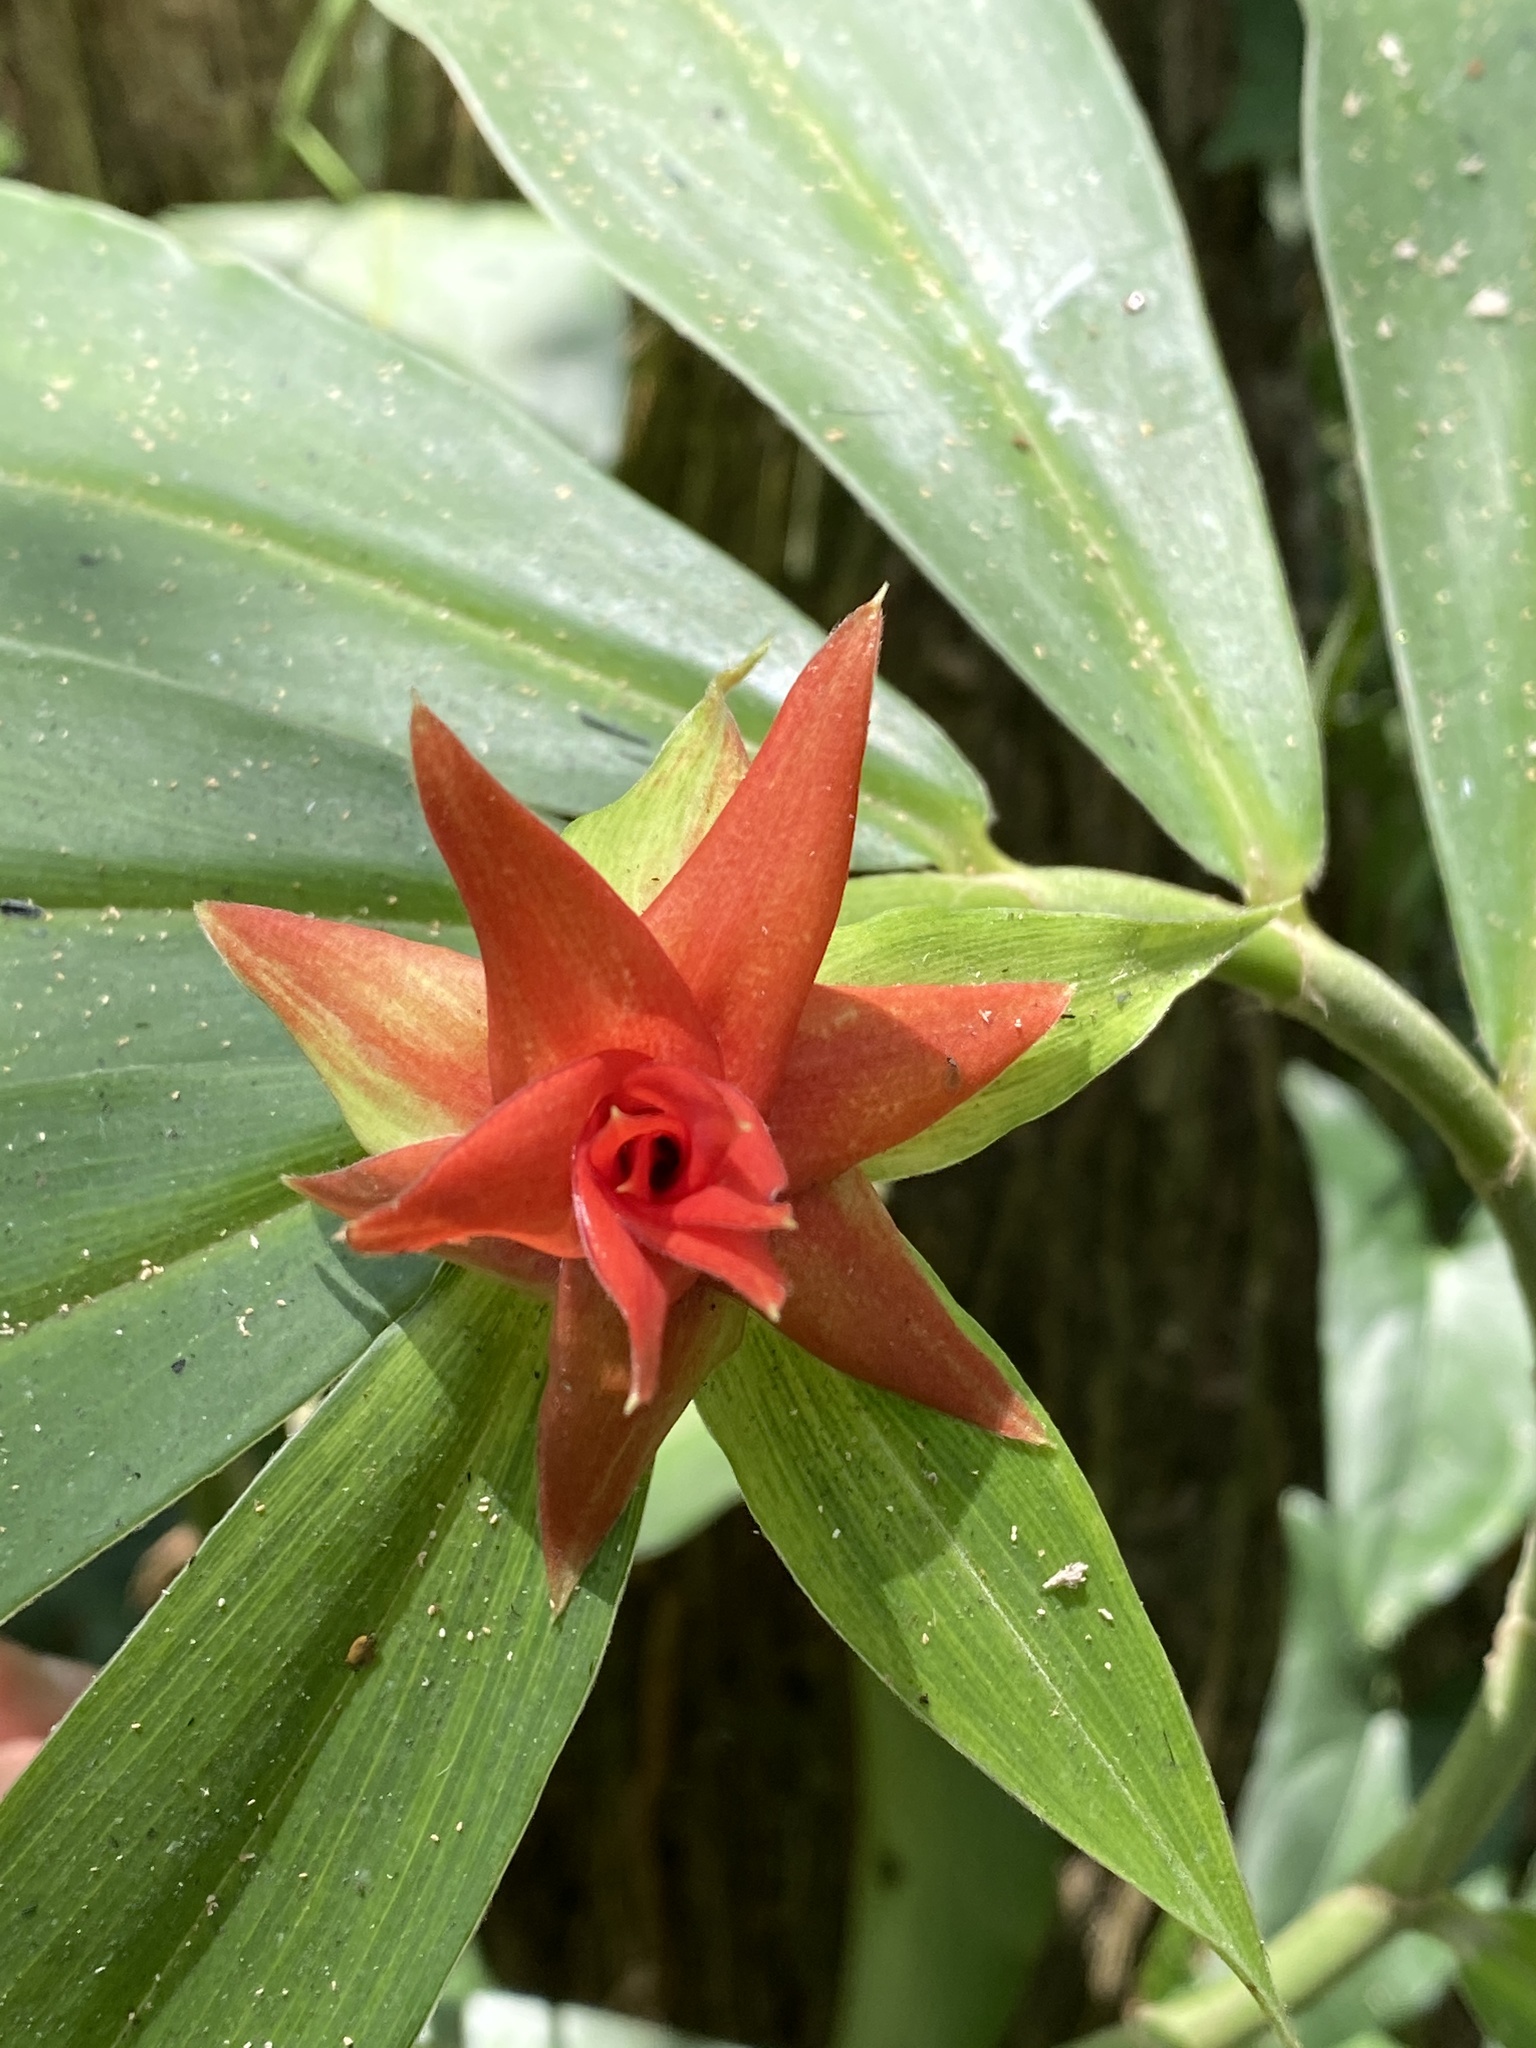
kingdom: Plantae
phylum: Tracheophyta
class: Liliopsida
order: Zingiberales
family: Costaceae
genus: Costus
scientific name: Costus comosus
